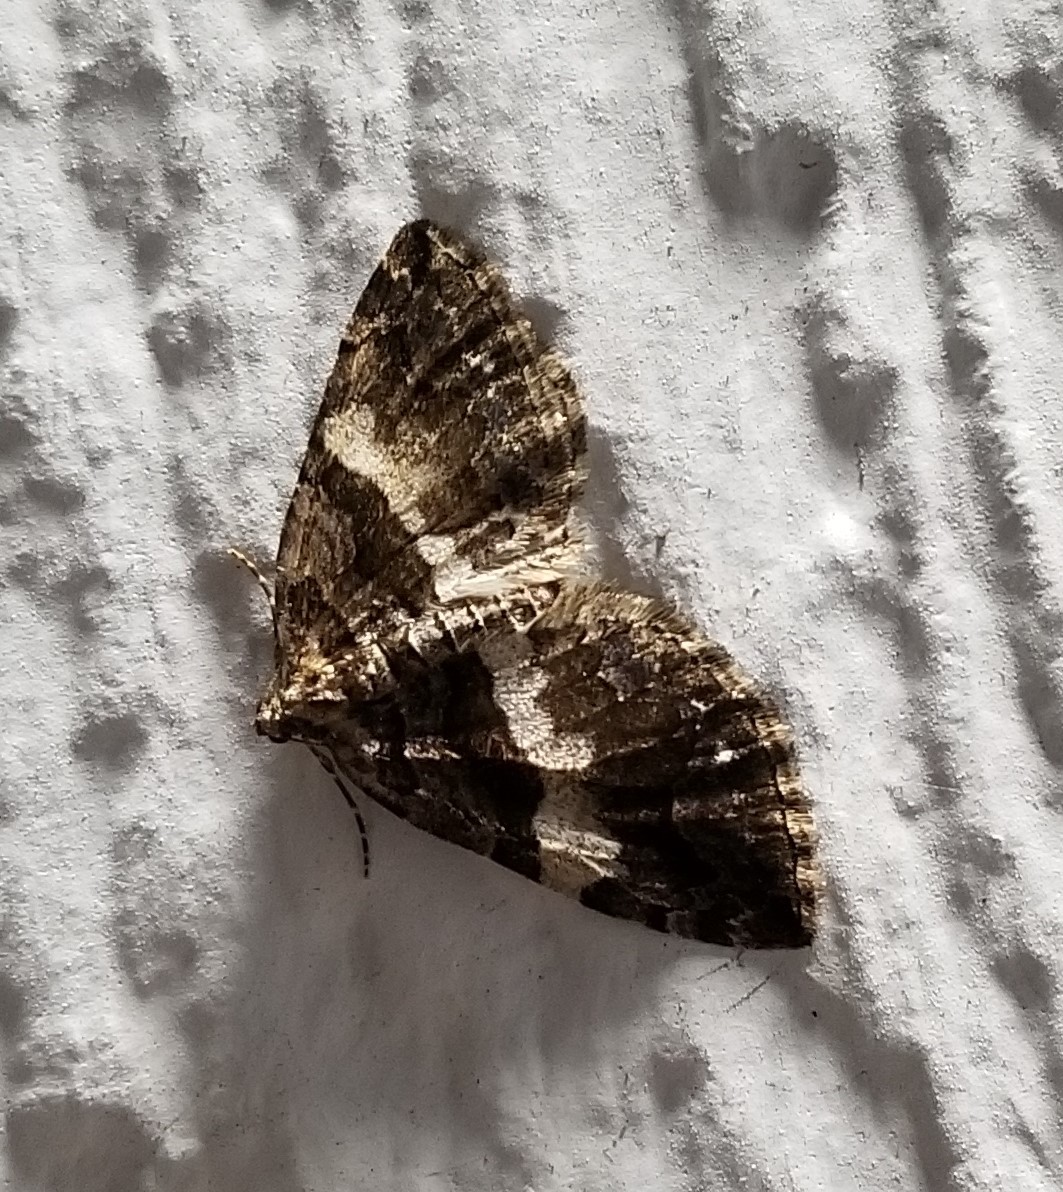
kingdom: Animalia
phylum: Arthropoda
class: Insecta
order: Lepidoptera
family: Geometridae
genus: Anticlea
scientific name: Anticlea vasiliata
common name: Variable carpet
